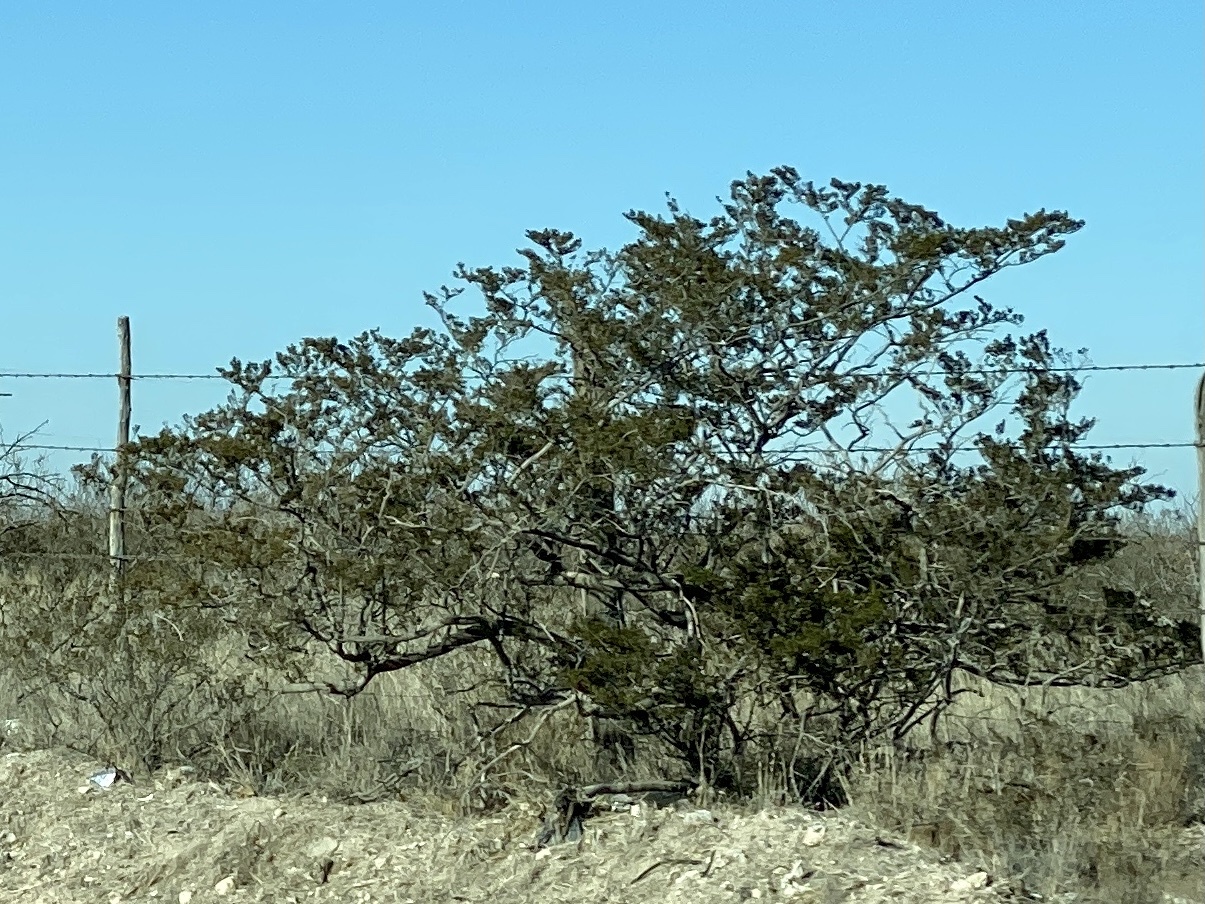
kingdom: Plantae
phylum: Tracheophyta
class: Magnoliopsida
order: Zygophyllales
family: Zygophyllaceae
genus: Larrea
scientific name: Larrea tridentata
